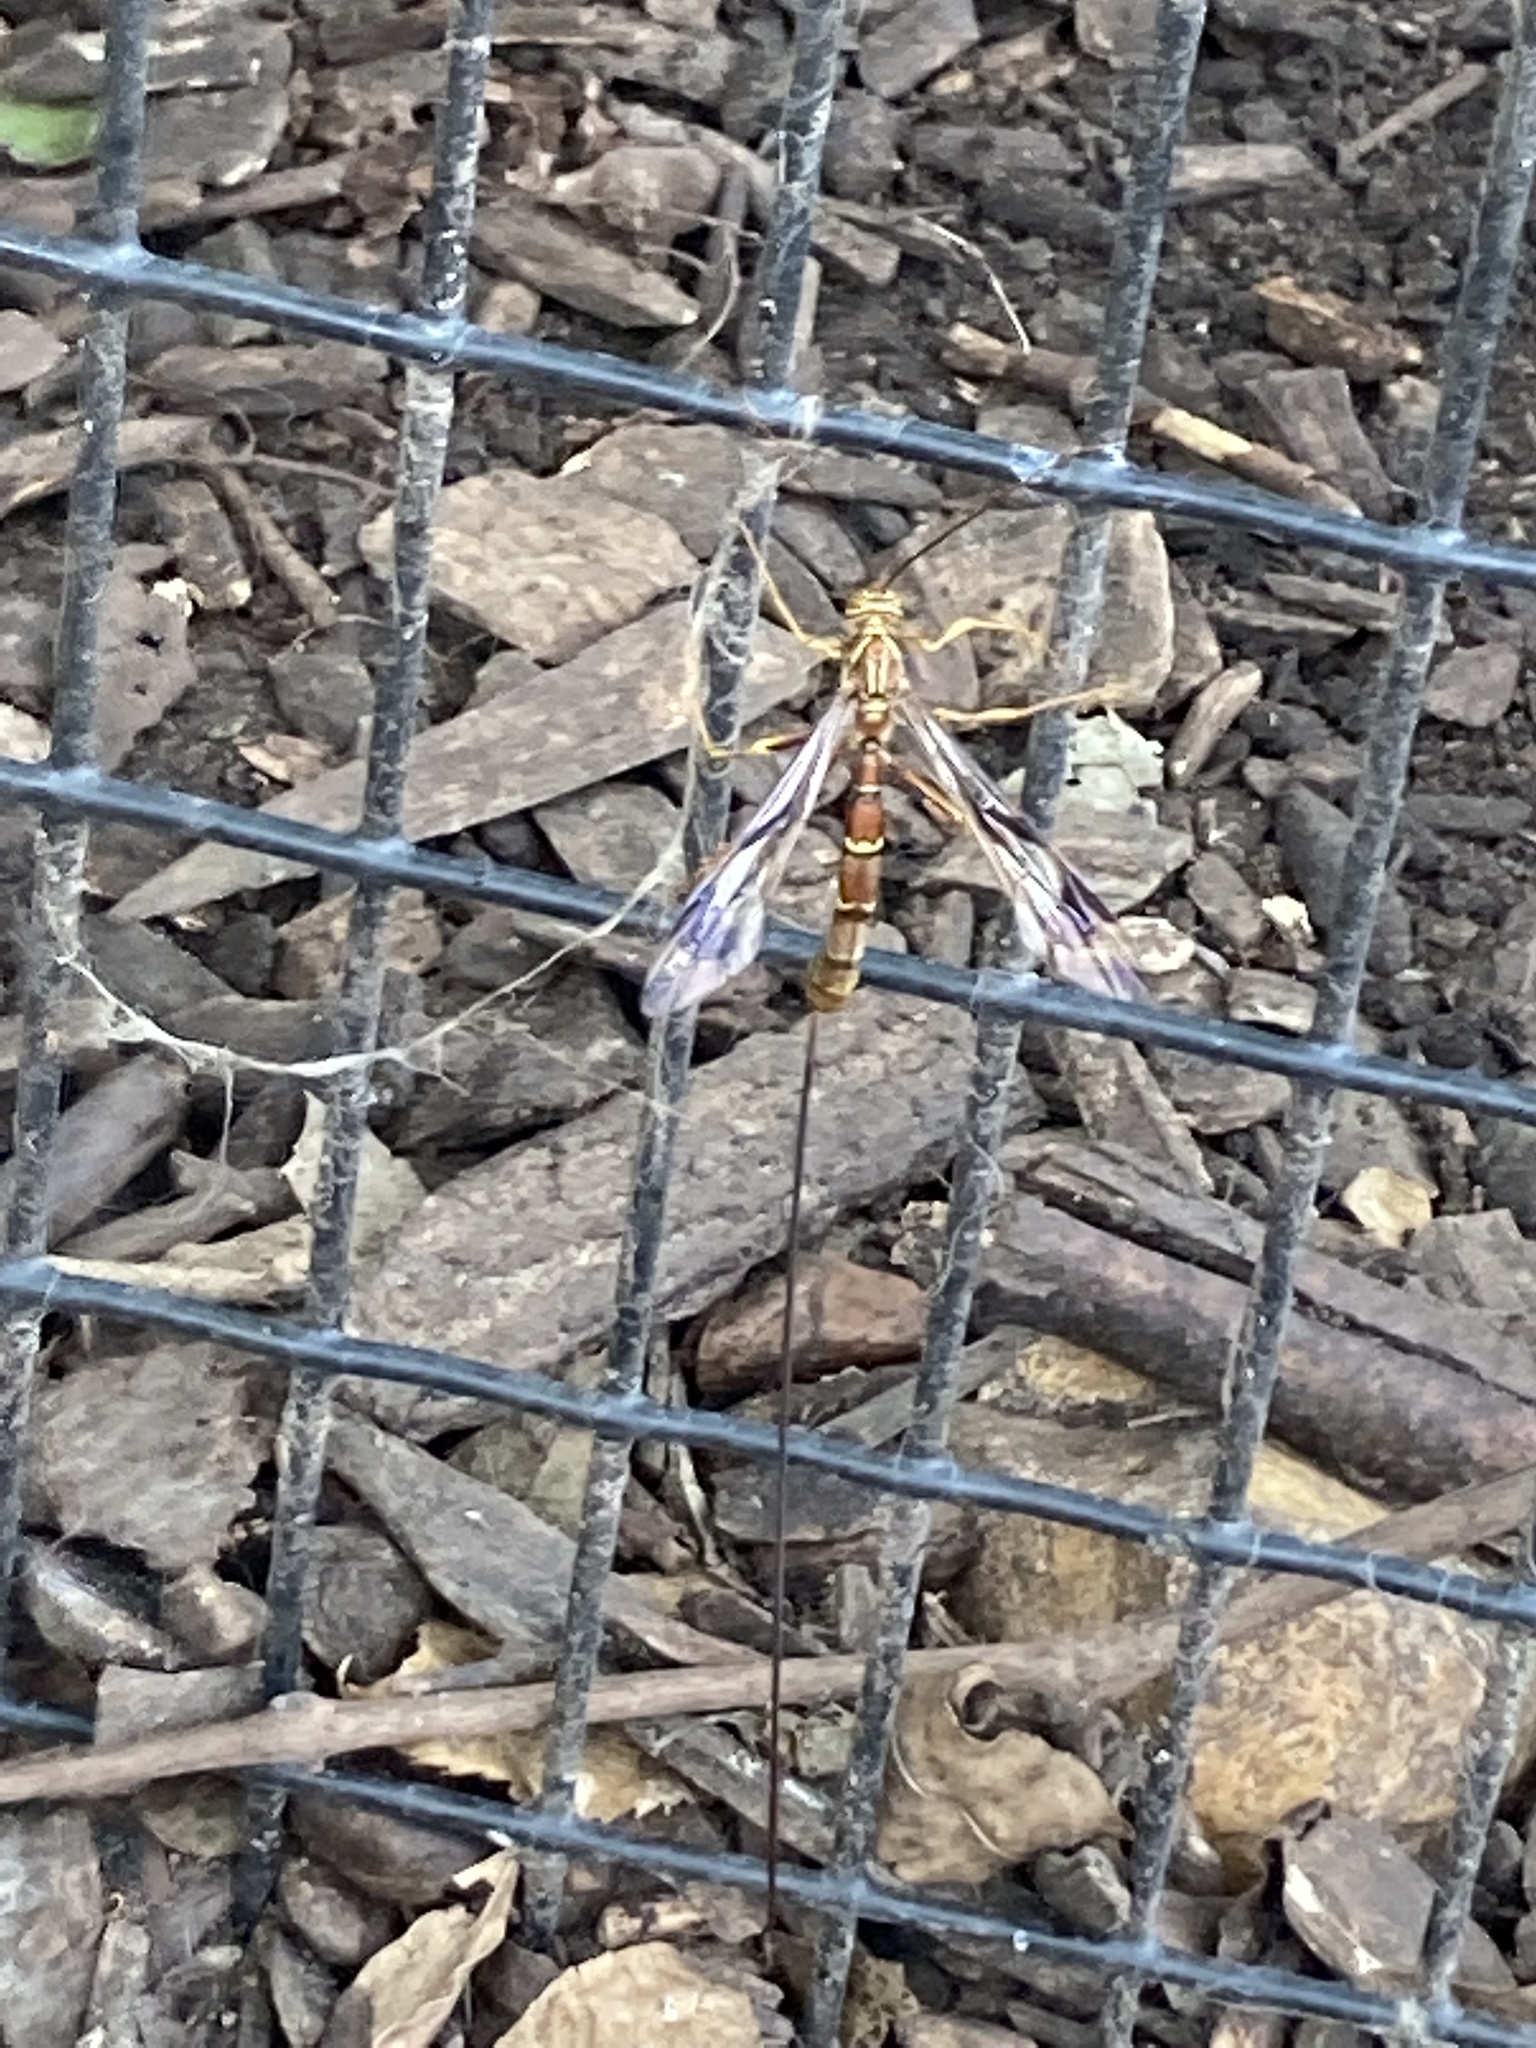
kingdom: Animalia
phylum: Arthropoda
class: Insecta
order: Hymenoptera
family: Ichneumonidae
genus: Megarhyssa
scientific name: Megarhyssa macrura
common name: Long-tailed giant ichneumonid wasp
